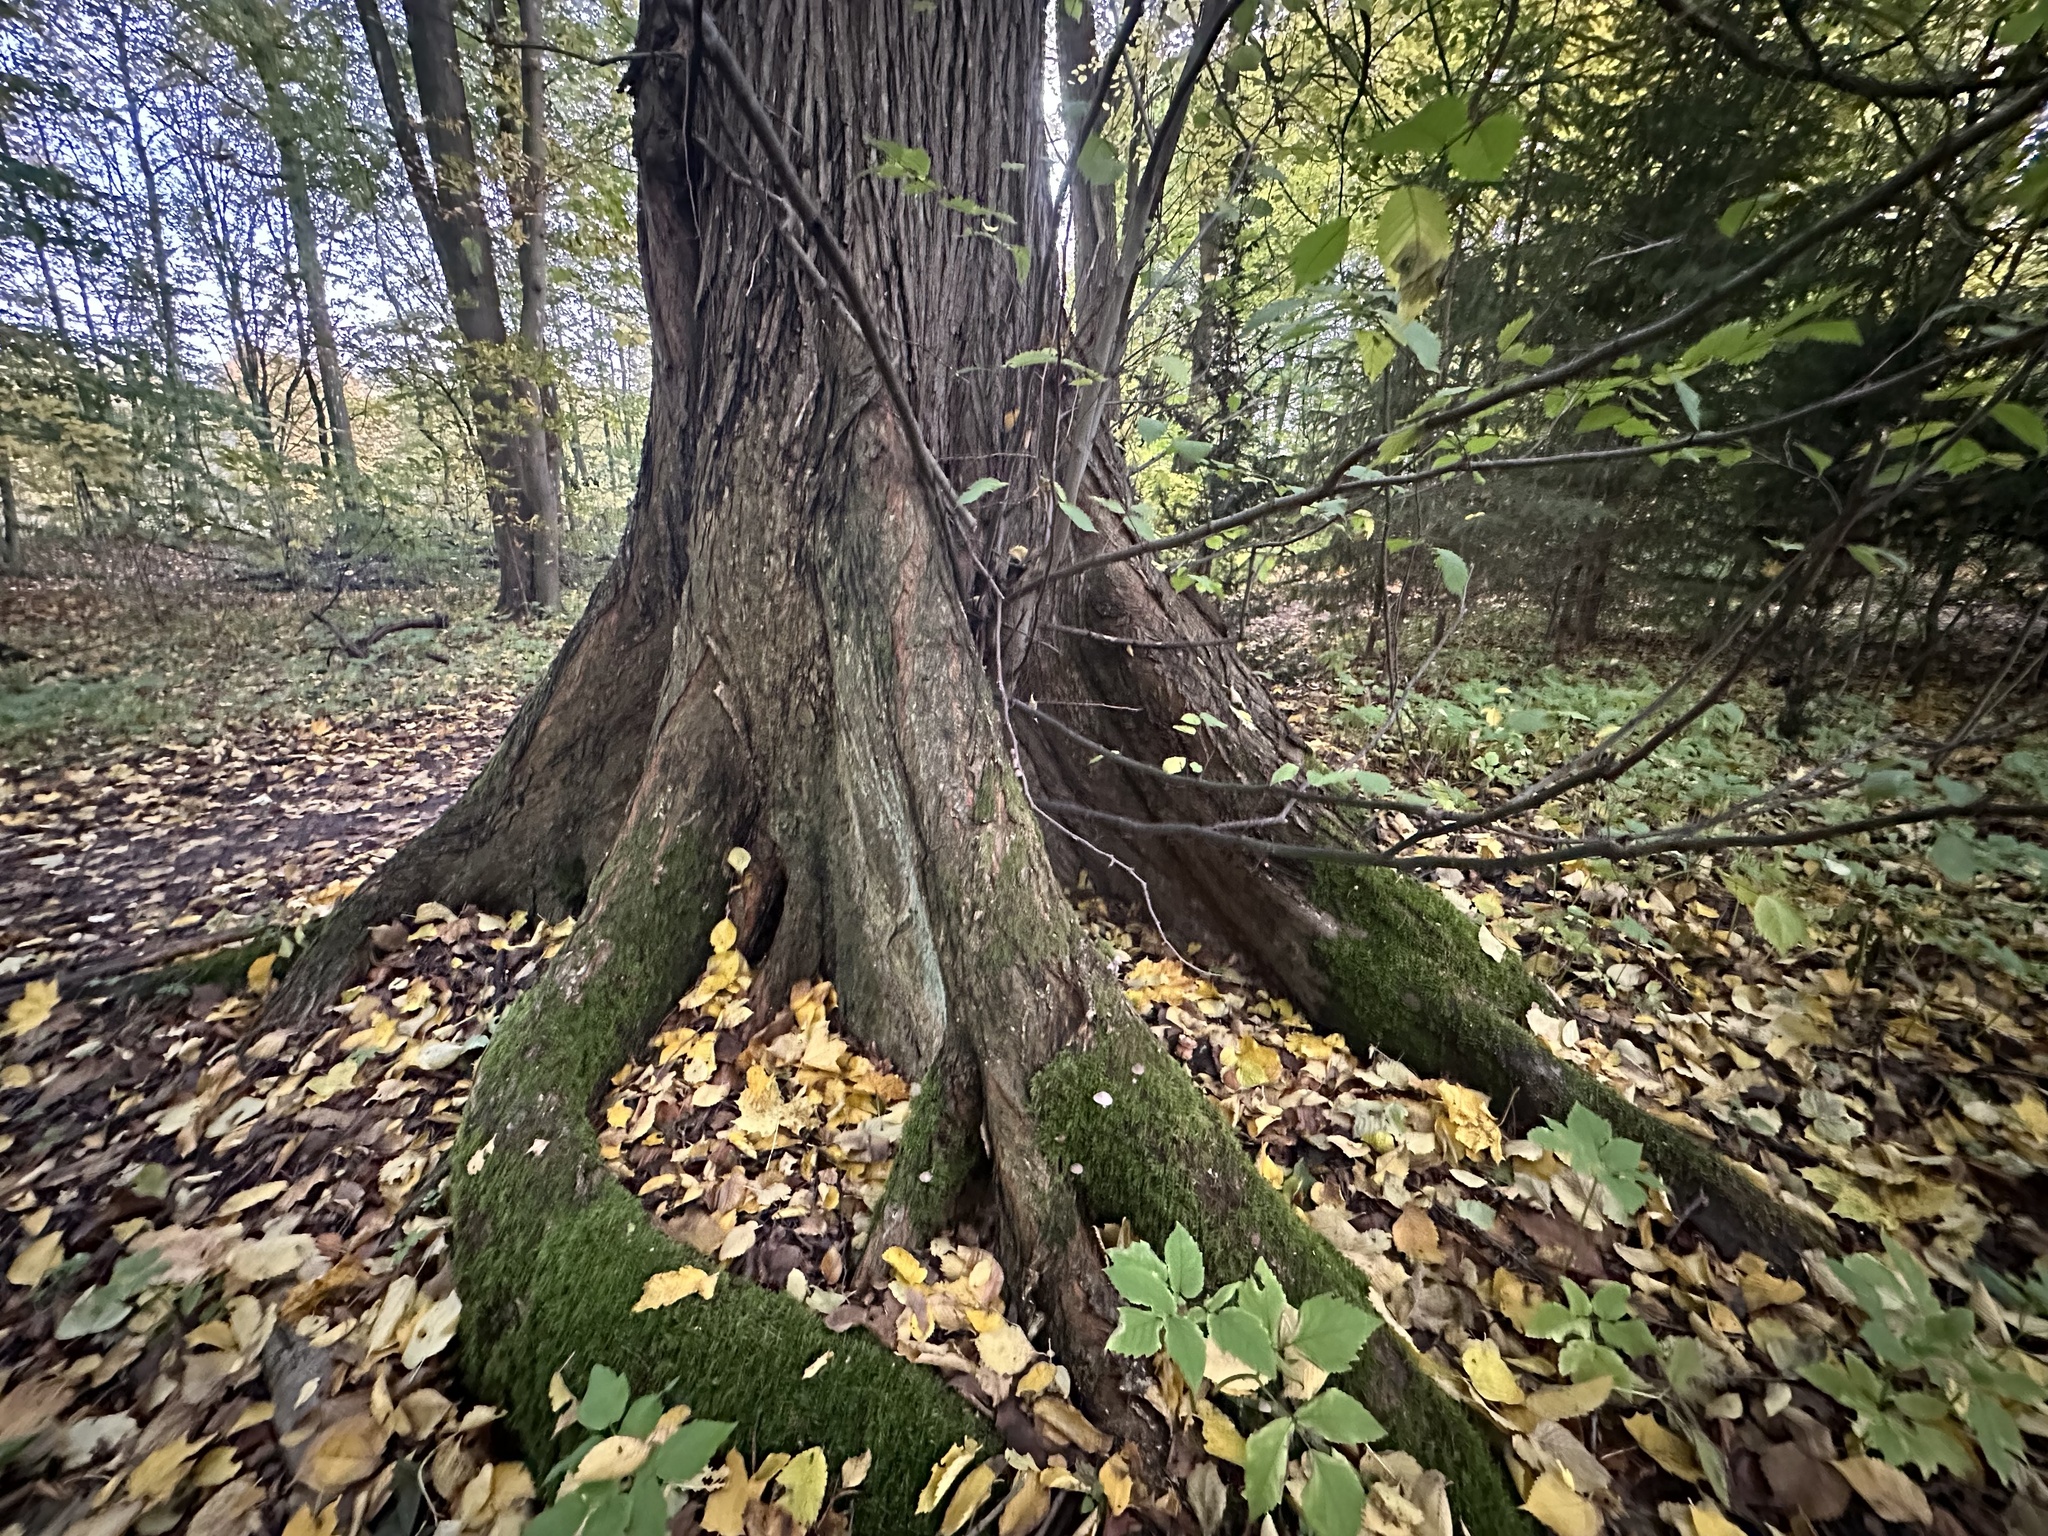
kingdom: Plantae
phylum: Tracheophyta
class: Magnoliopsida
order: Rosales
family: Ulmaceae
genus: Ulmus
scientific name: Ulmus laevis
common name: European white-elm
